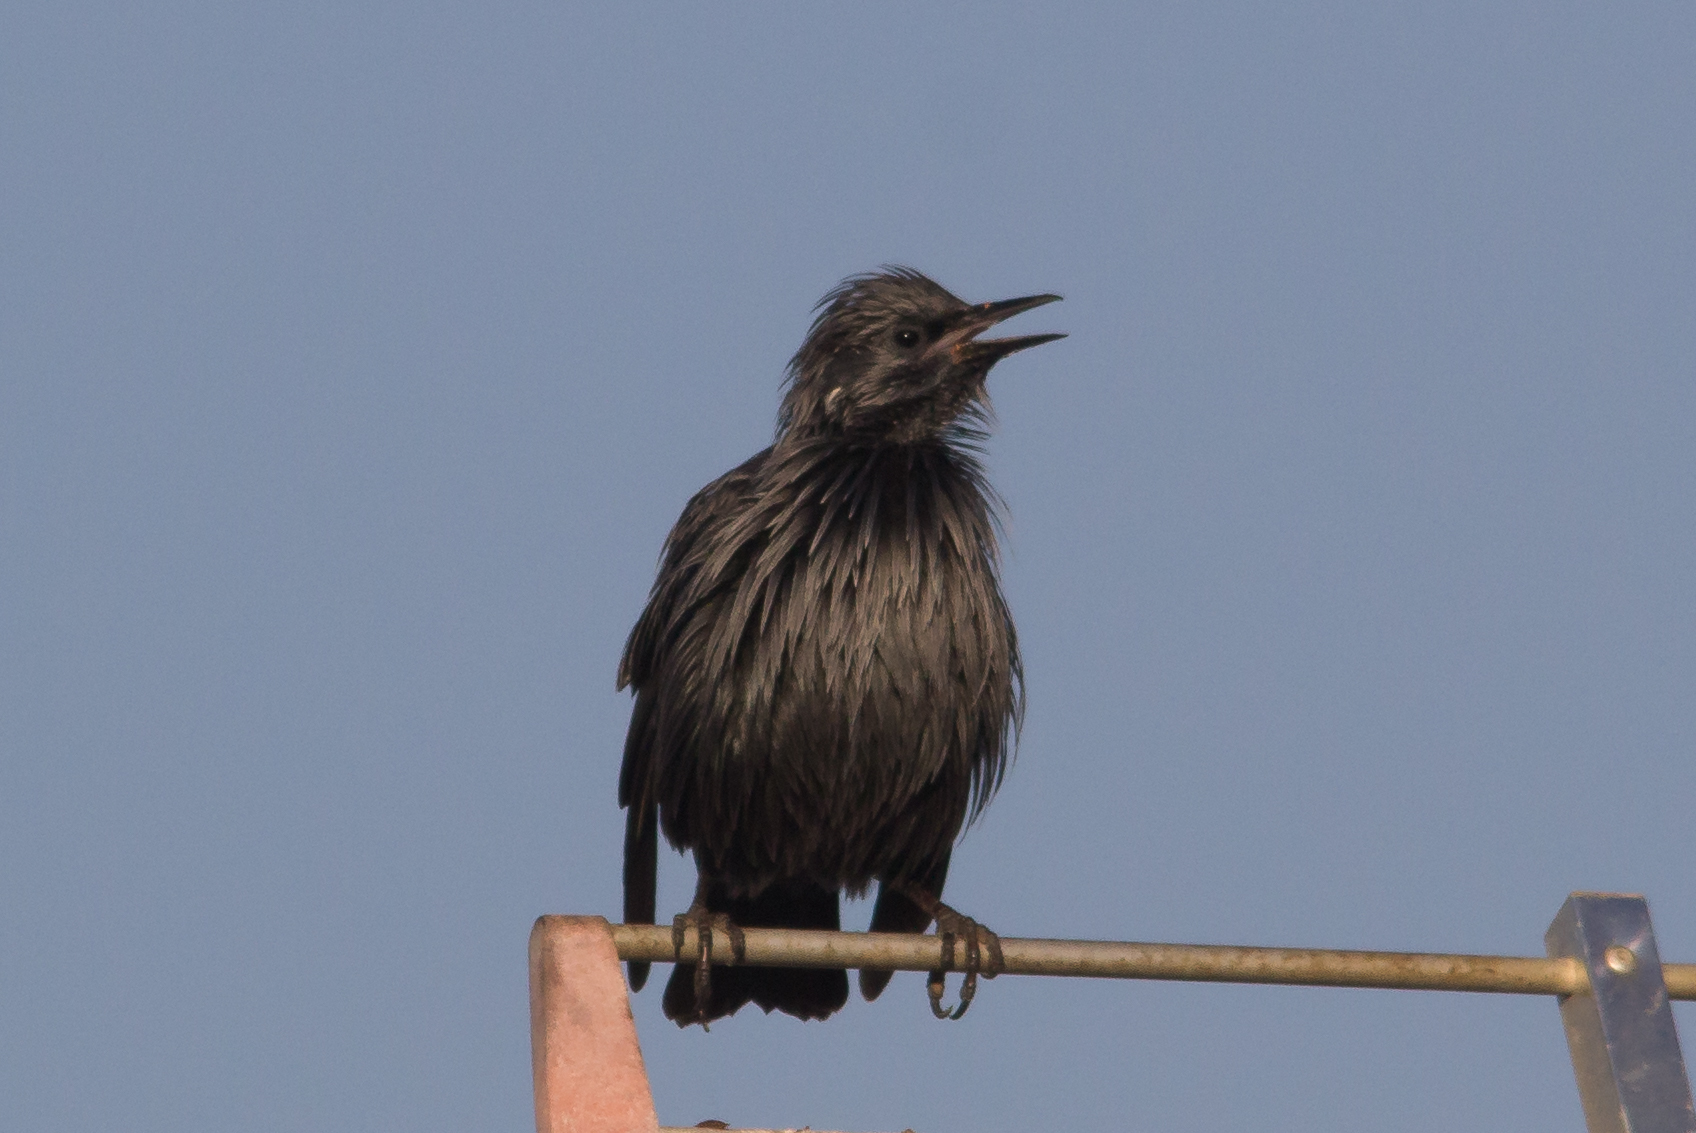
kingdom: Animalia
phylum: Chordata
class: Aves
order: Passeriformes
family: Sturnidae
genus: Sturnus
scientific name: Sturnus unicolor
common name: Spotless starling
